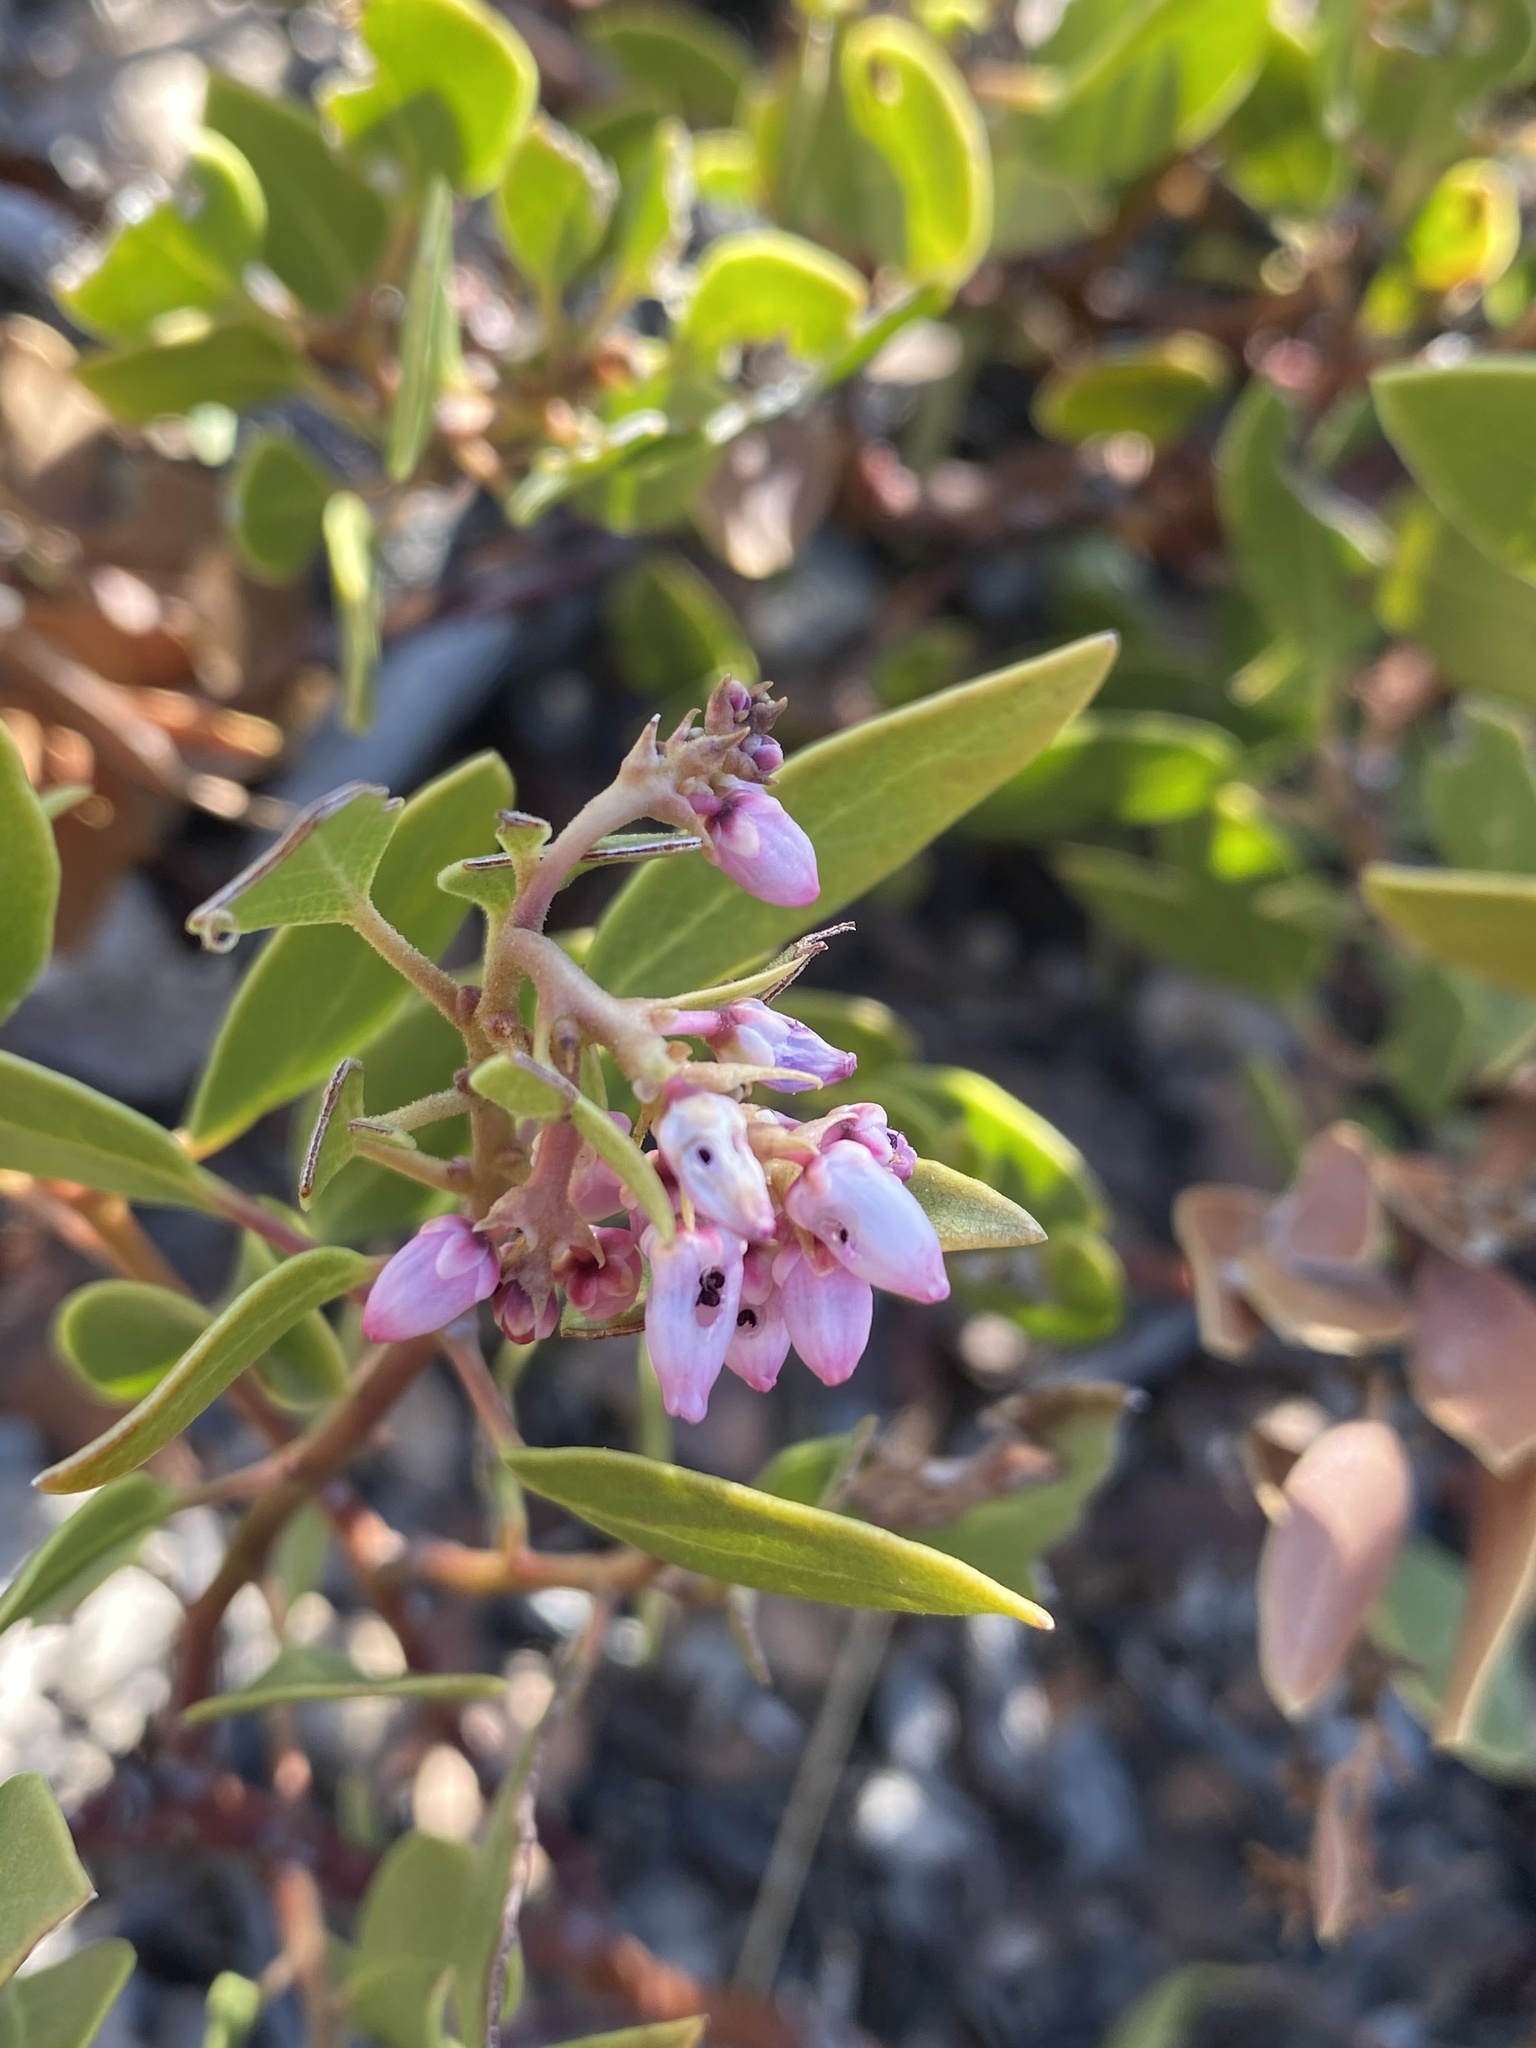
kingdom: Plantae
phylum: Tracheophyta
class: Magnoliopsida
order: Ericales
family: Ericaceae
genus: Arctostaphylos
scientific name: Arctostaphylos patula
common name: Green-leaf manzanita
